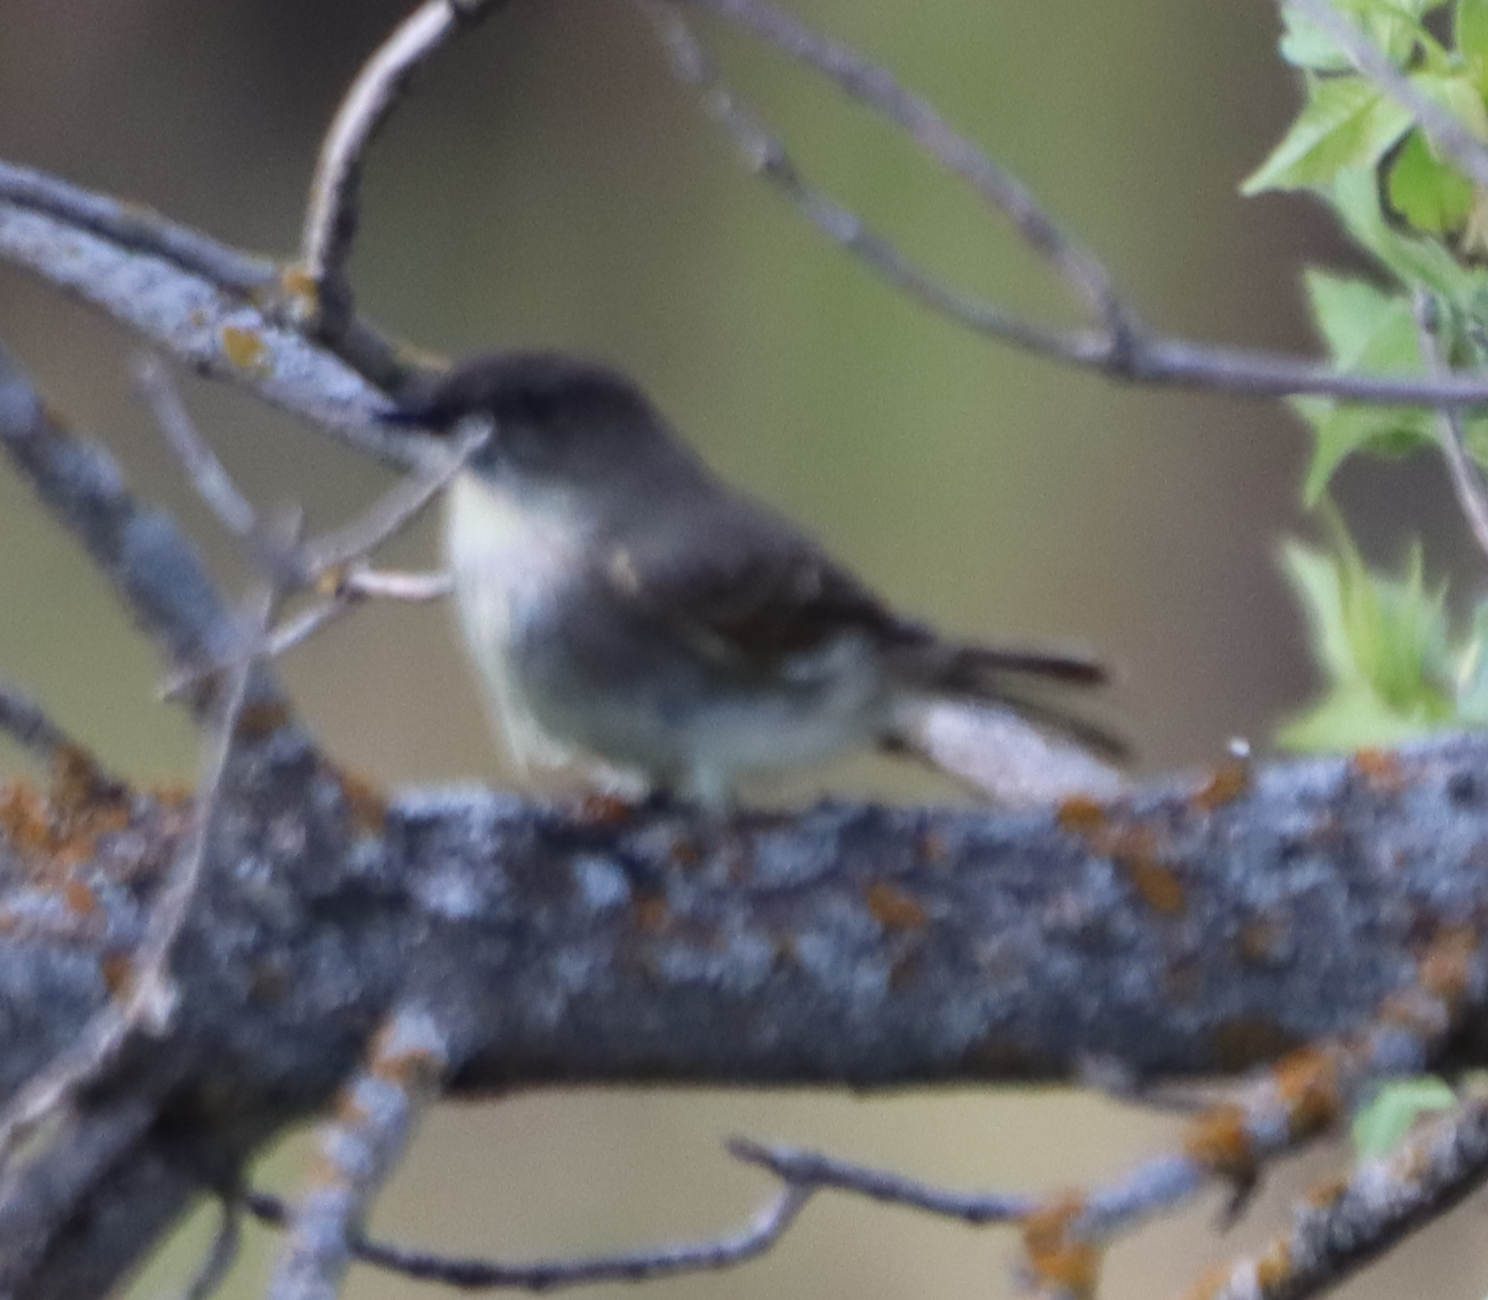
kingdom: Animalia
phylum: Chordata
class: Aves
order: Passeriformes
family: Tyrannidae
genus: Sayornis
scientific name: Sayornis phoebe
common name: Eastern phoebe
